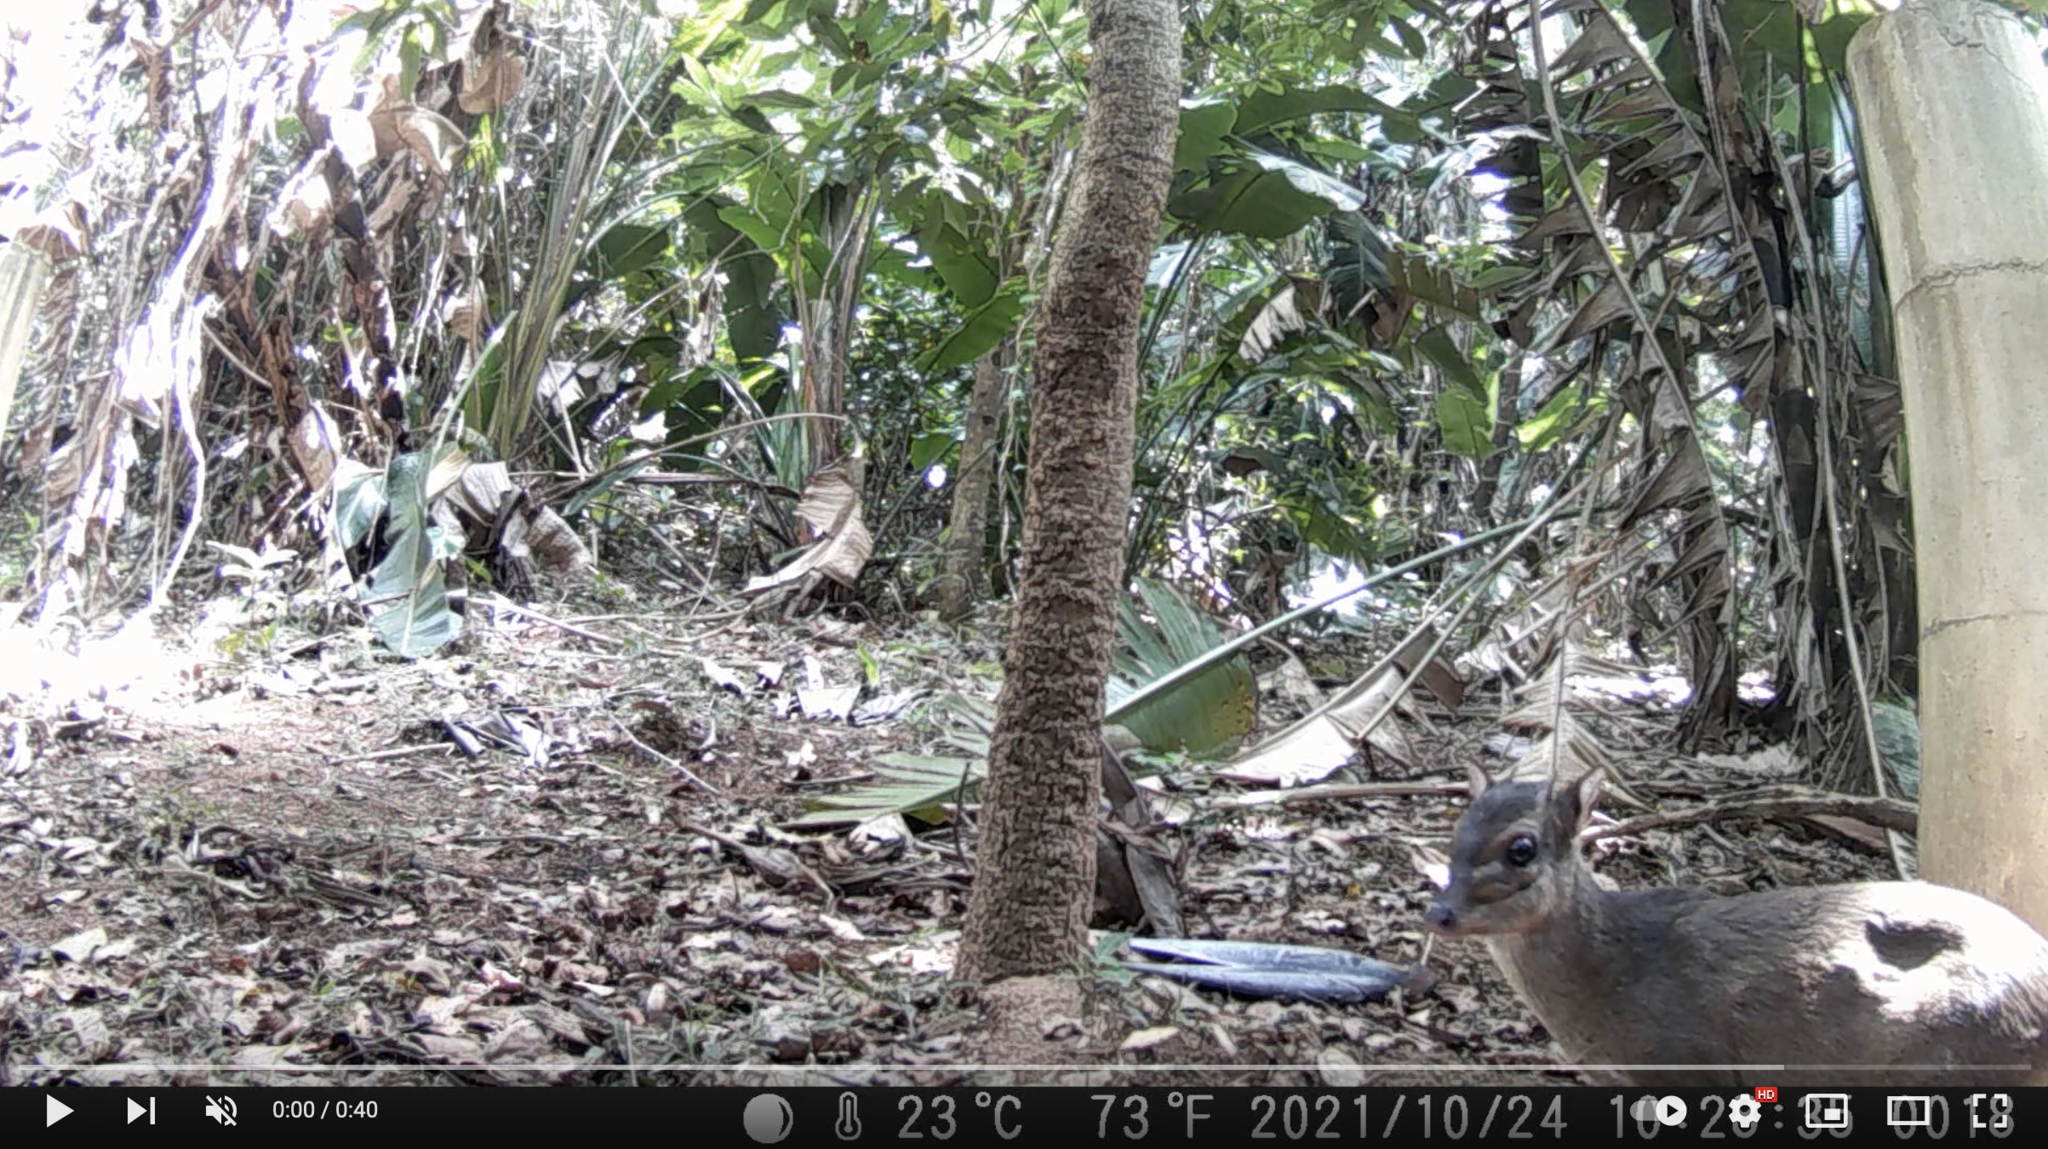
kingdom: Animalia
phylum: Chordata
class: Mammalia
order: Artiodactyla
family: Bovidae
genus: Philantomba
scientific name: Philantomba monticola
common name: Blue duiker
